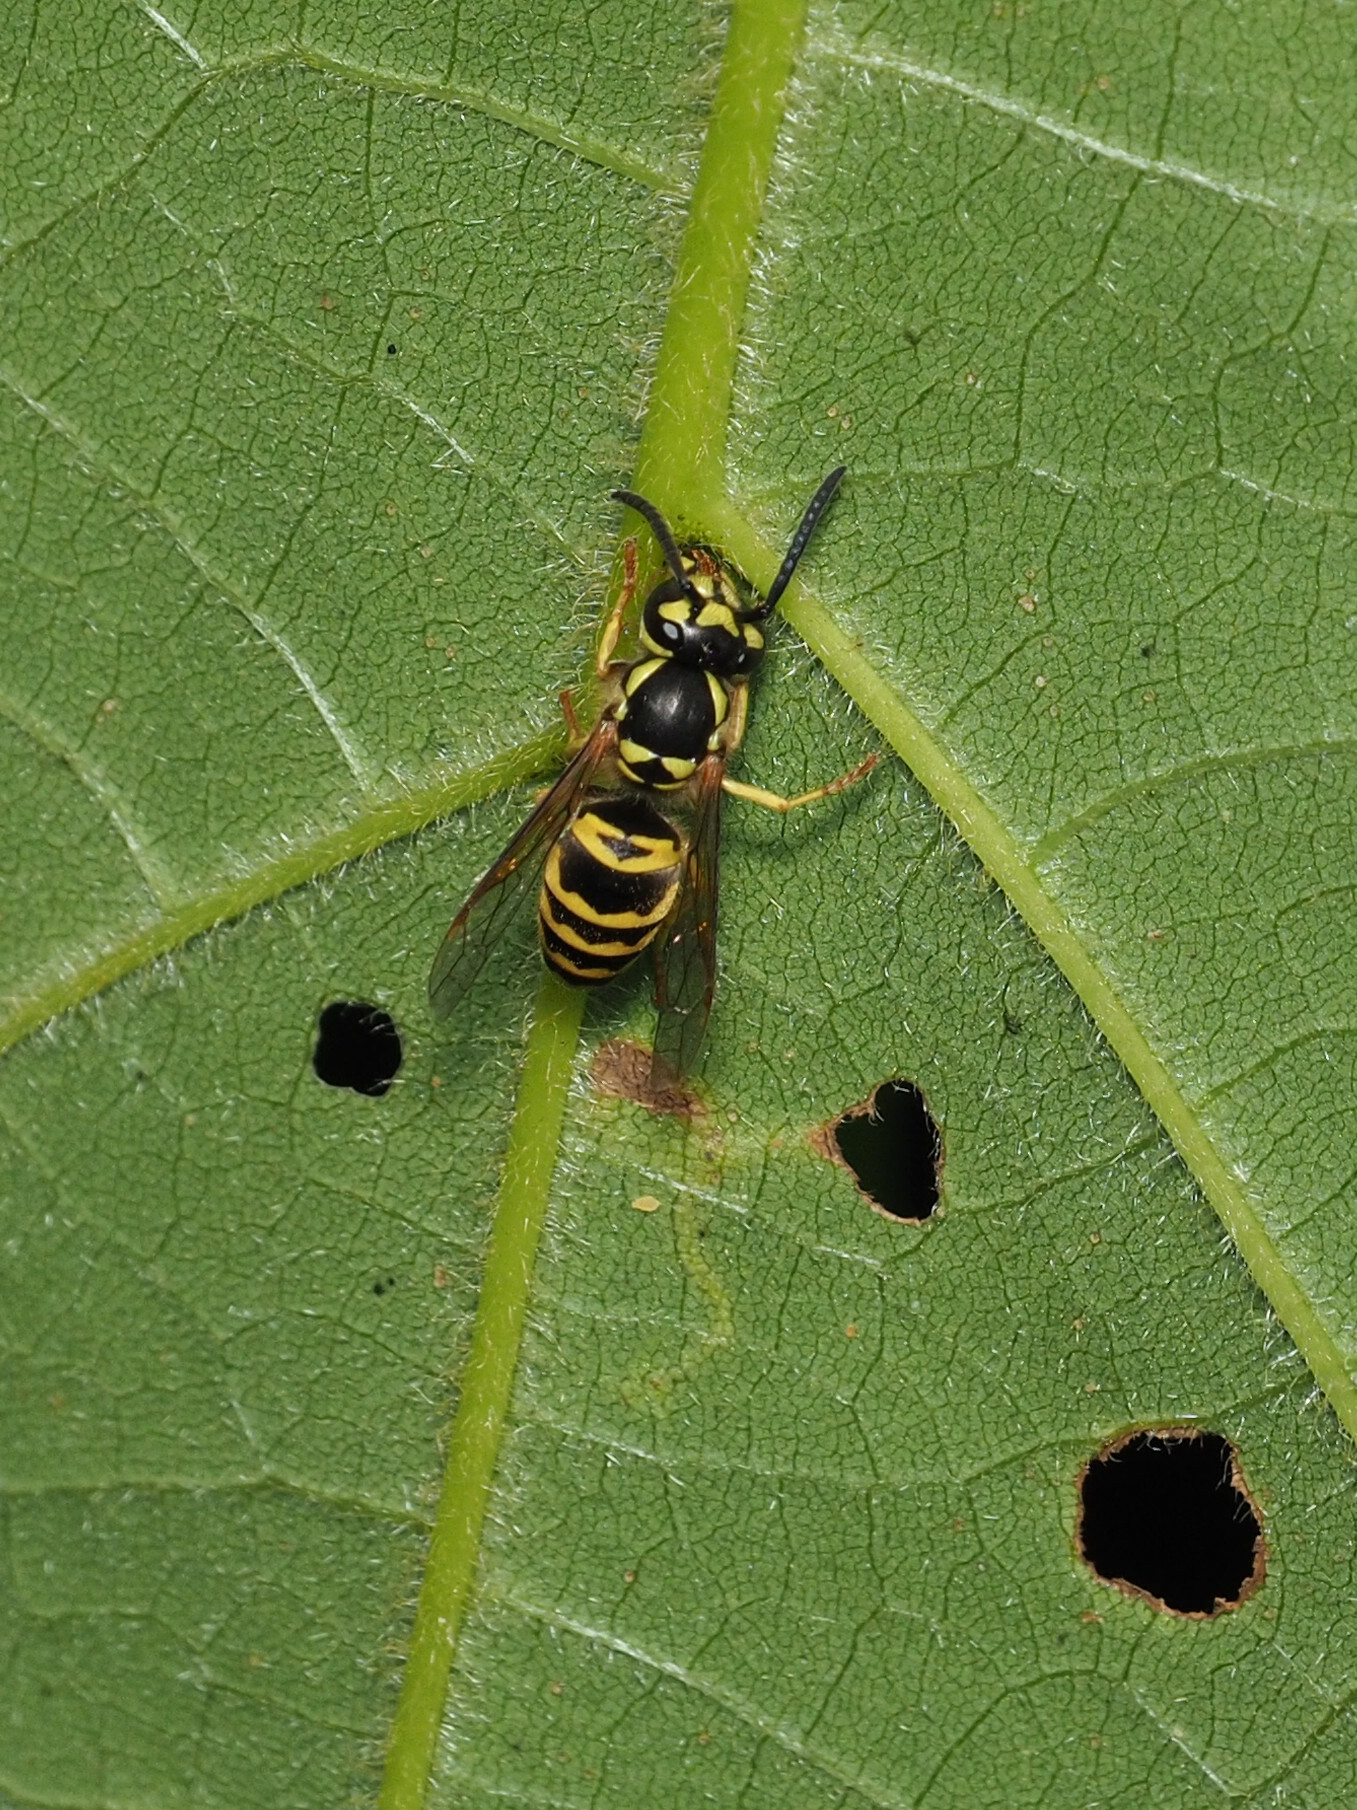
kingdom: Animalia
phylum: Arthropoda
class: Insecta
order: Hymenoptera
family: Vespidae
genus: Vespula
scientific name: Vespula maculifrons
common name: Eastern yellowjacket
